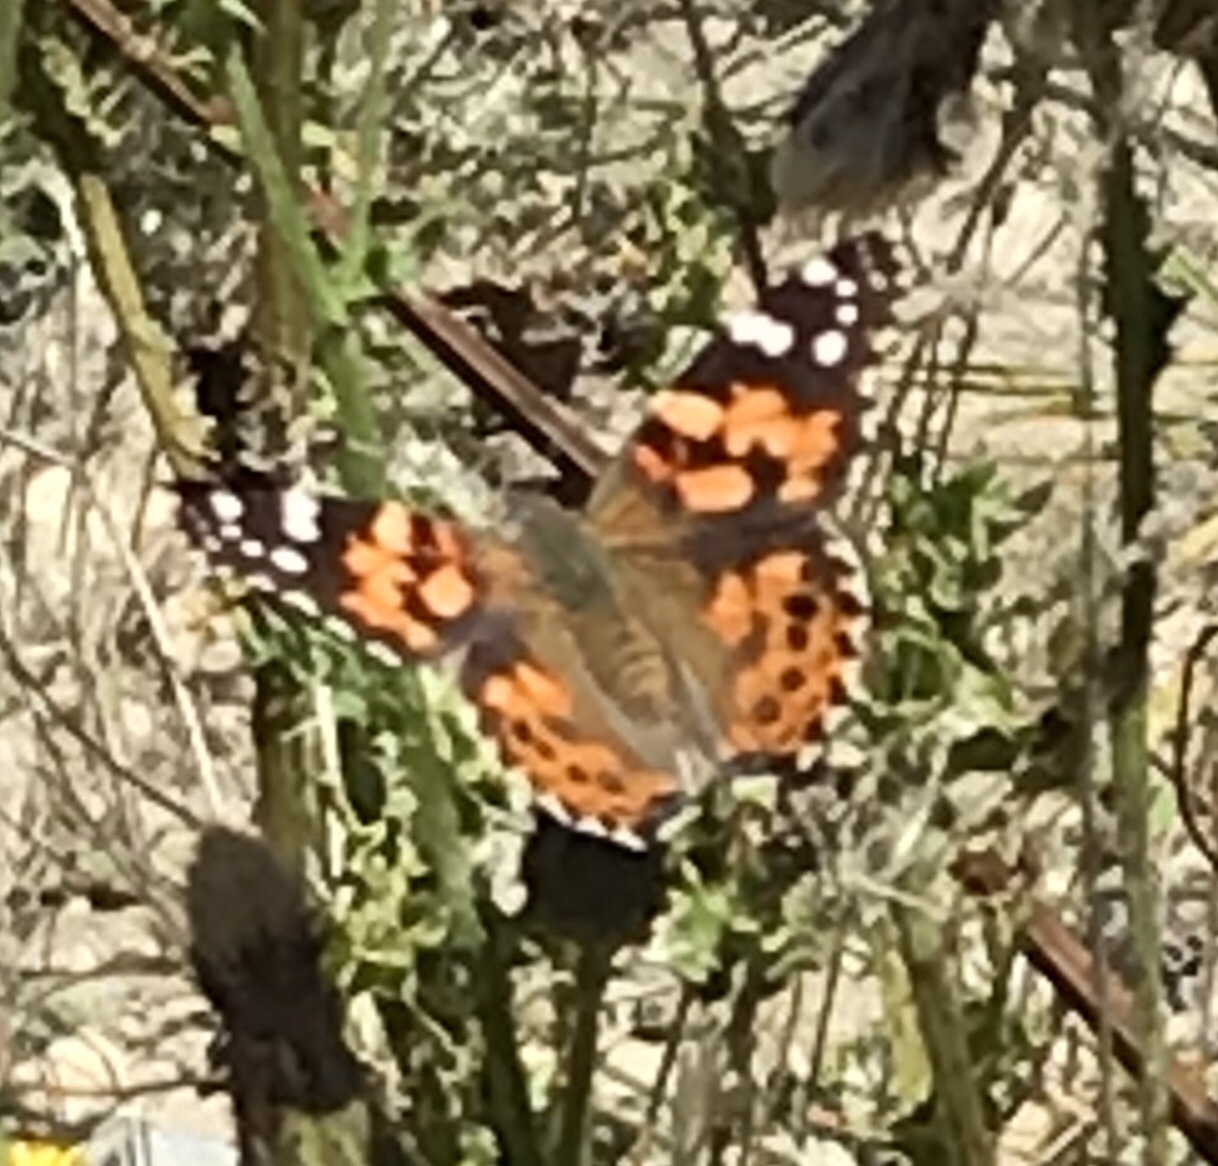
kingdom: Animalia
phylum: Arthropoda
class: Insecta
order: Lepidoptera
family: Nymphalidae
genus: Vanessa
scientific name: Vanessa cardui
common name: Painted lady
